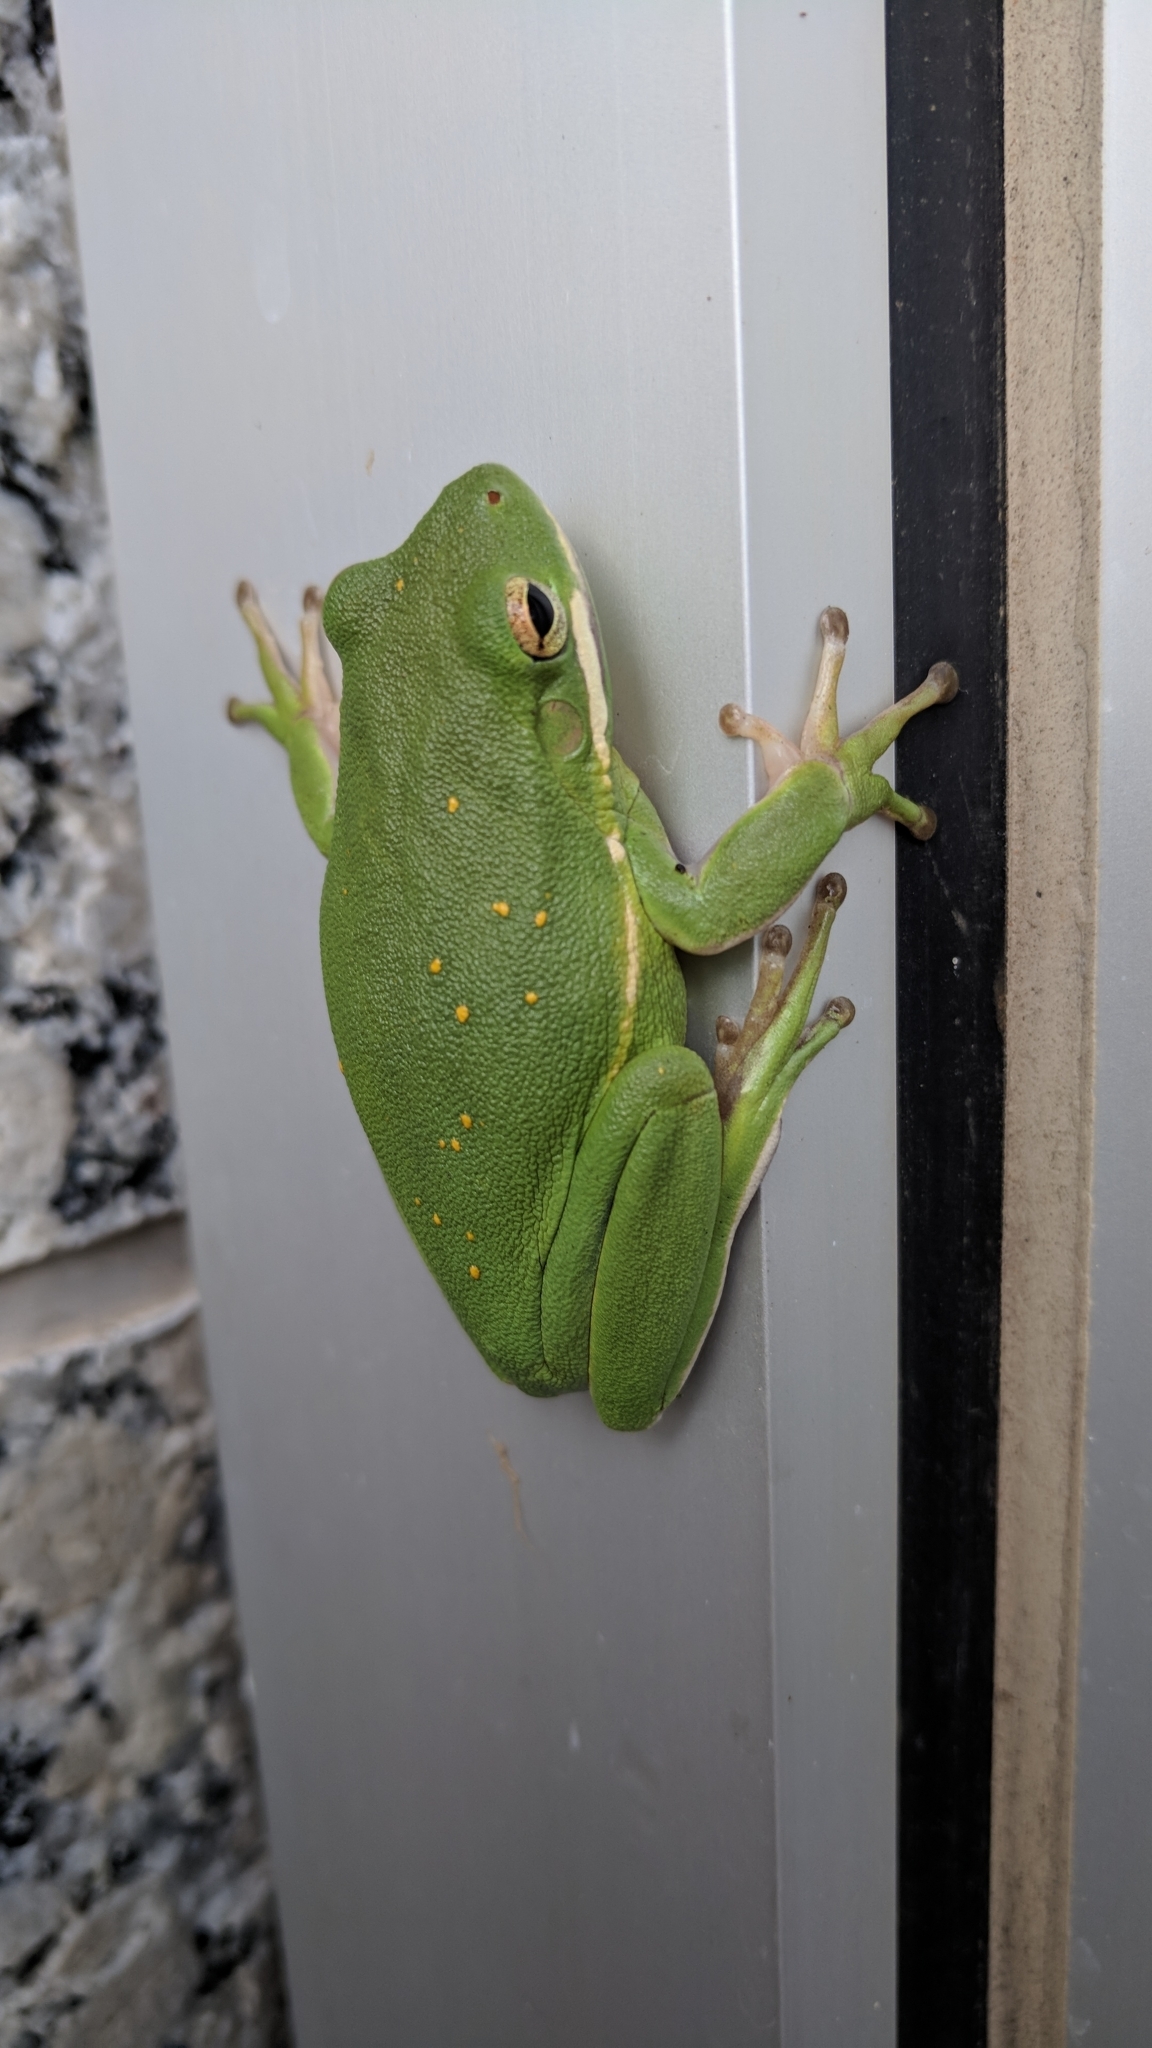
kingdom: Animalia
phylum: Chordata
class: Amphibia
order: Anura
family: Hylidae
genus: Dryophytes
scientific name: Dryophytes cinereus
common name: Green treefrog
